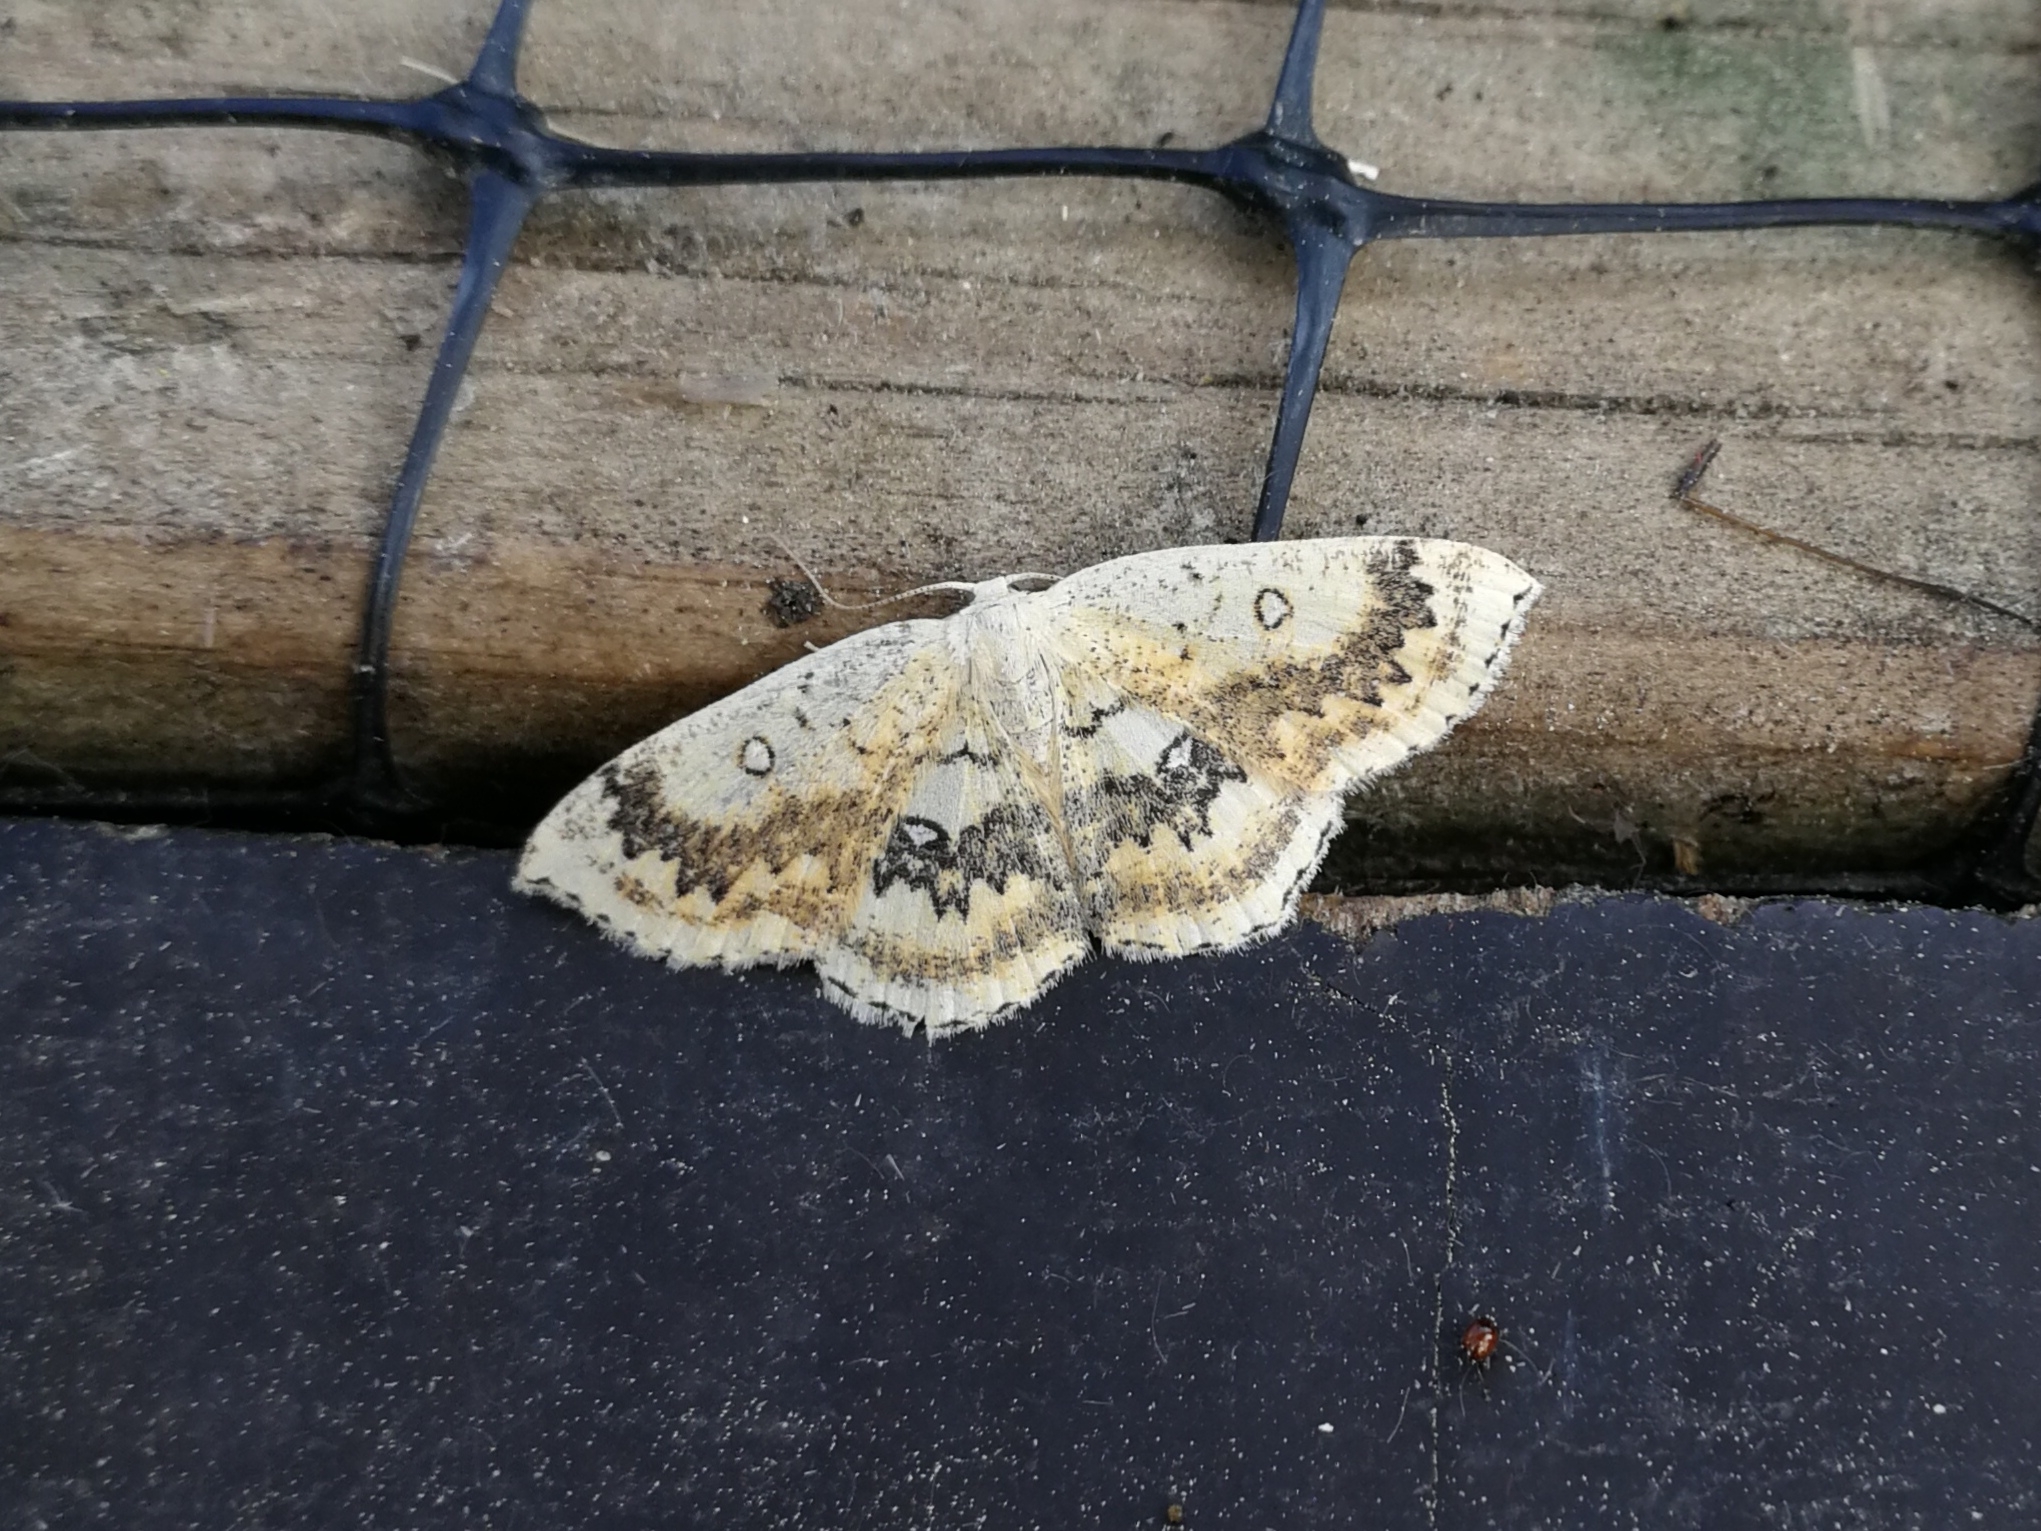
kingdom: Animalia
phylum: Arthropoda
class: Insecta
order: Lepidoptera
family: Geometridae
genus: Cyclophora
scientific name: Cyclophora annularia
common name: Mocha
